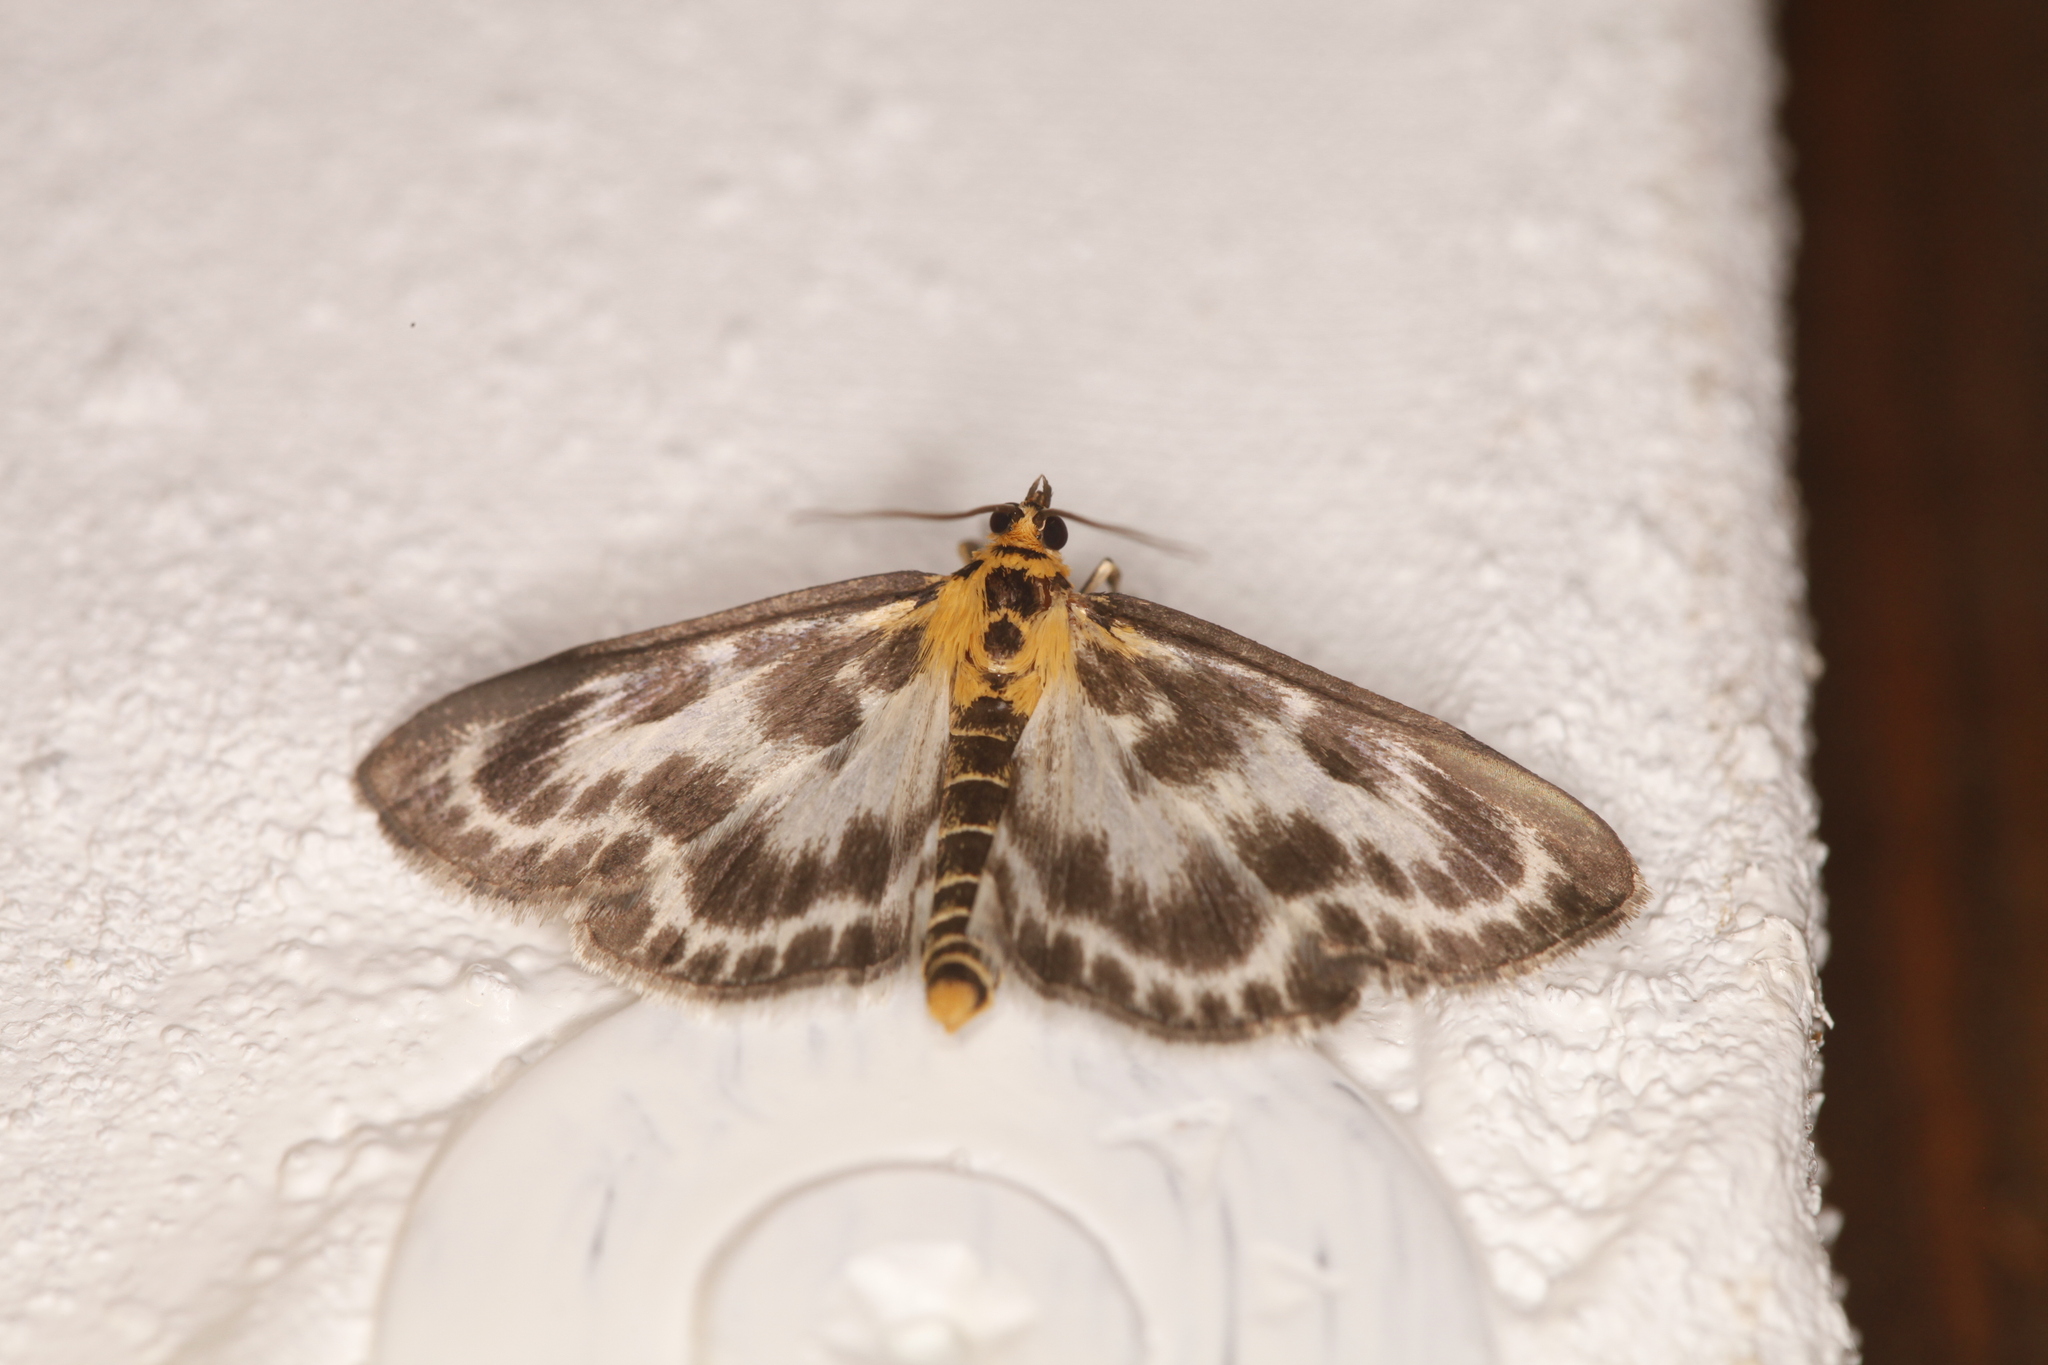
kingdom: Animalia
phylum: Arthropoda
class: Insecta
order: Lepidoptera
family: Crambidae
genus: Anania
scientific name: Anania hortulata
